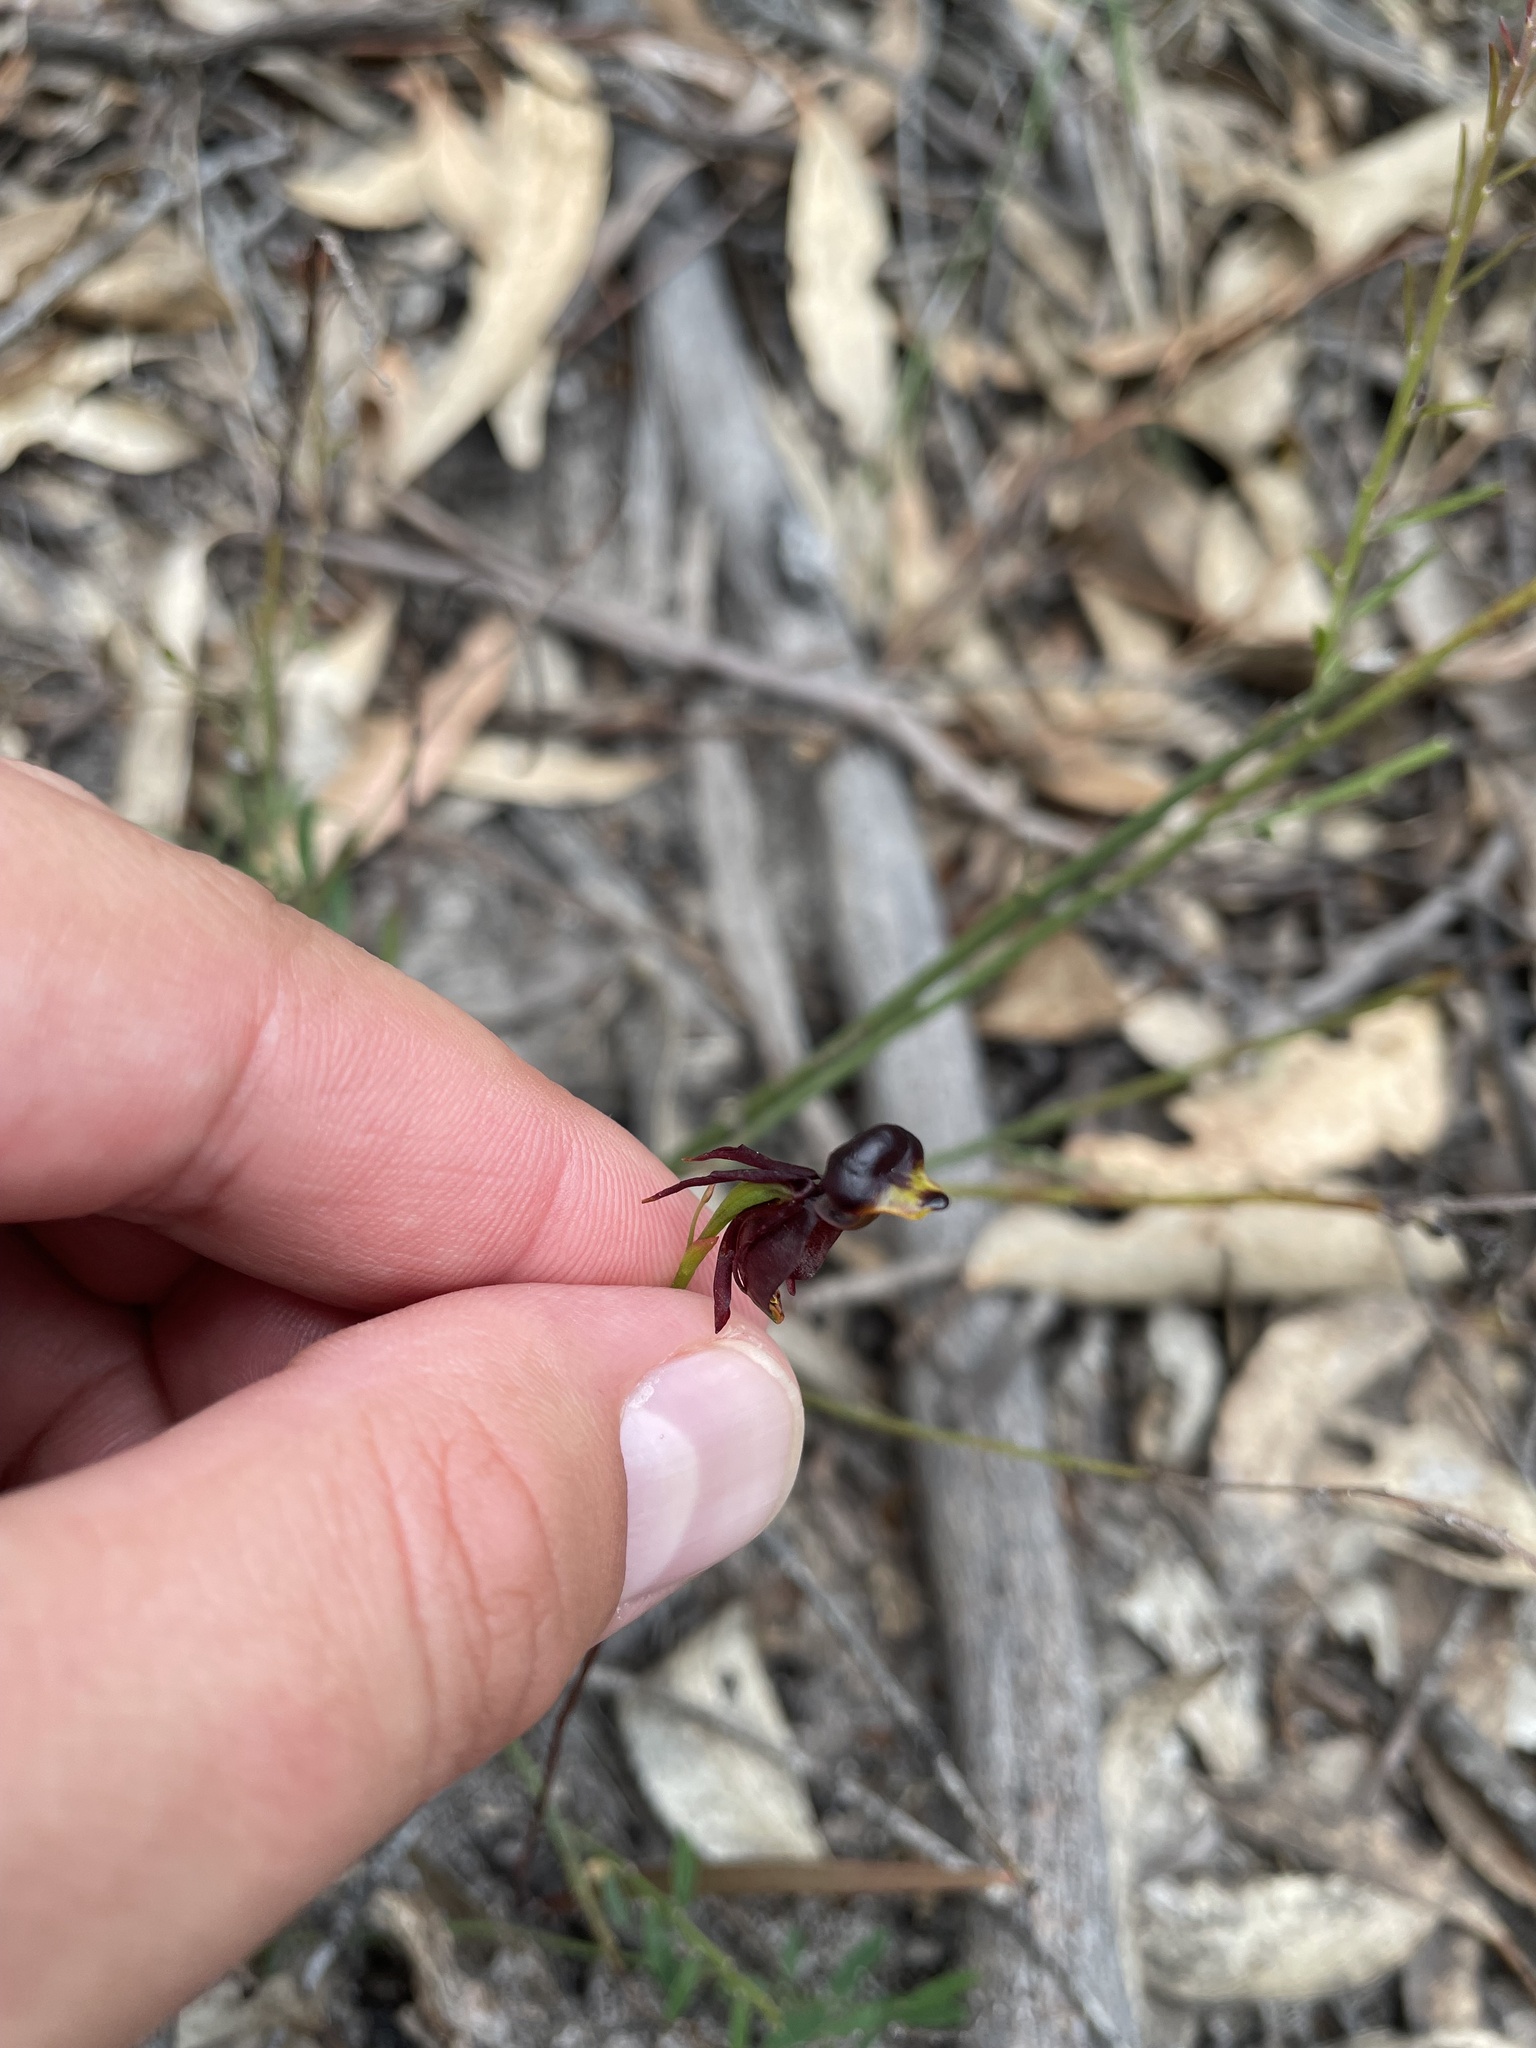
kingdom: Plantae
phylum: Tracheophyta
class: Liliopsida
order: Asparagales
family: Orchidaceae
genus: Caleana
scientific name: Caleana major
